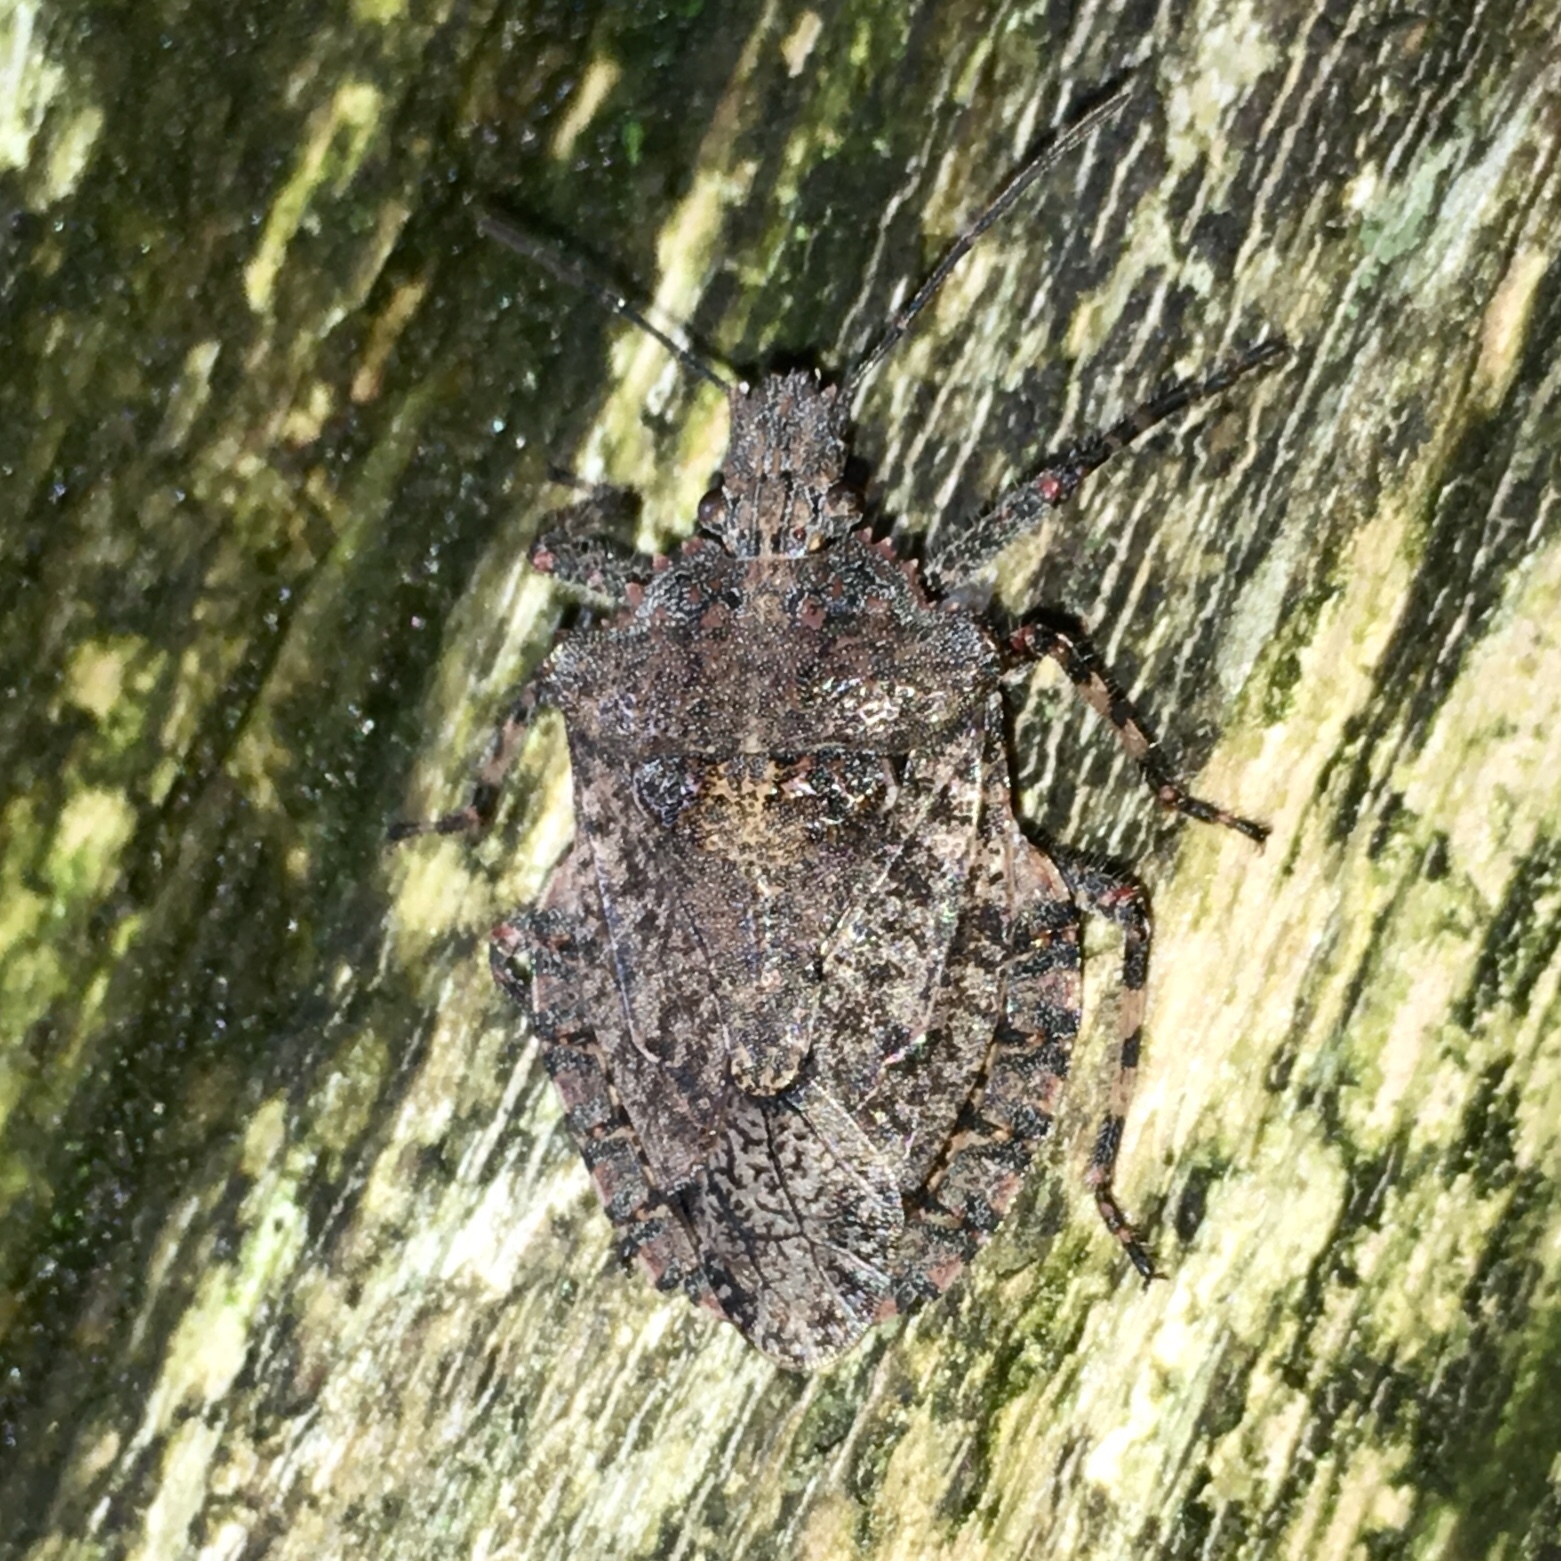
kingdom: Animalia
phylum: Arthropoda
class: Insecta
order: Hemiptera
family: Pentatomidae
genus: Brochymena
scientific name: Brochymena arborea
